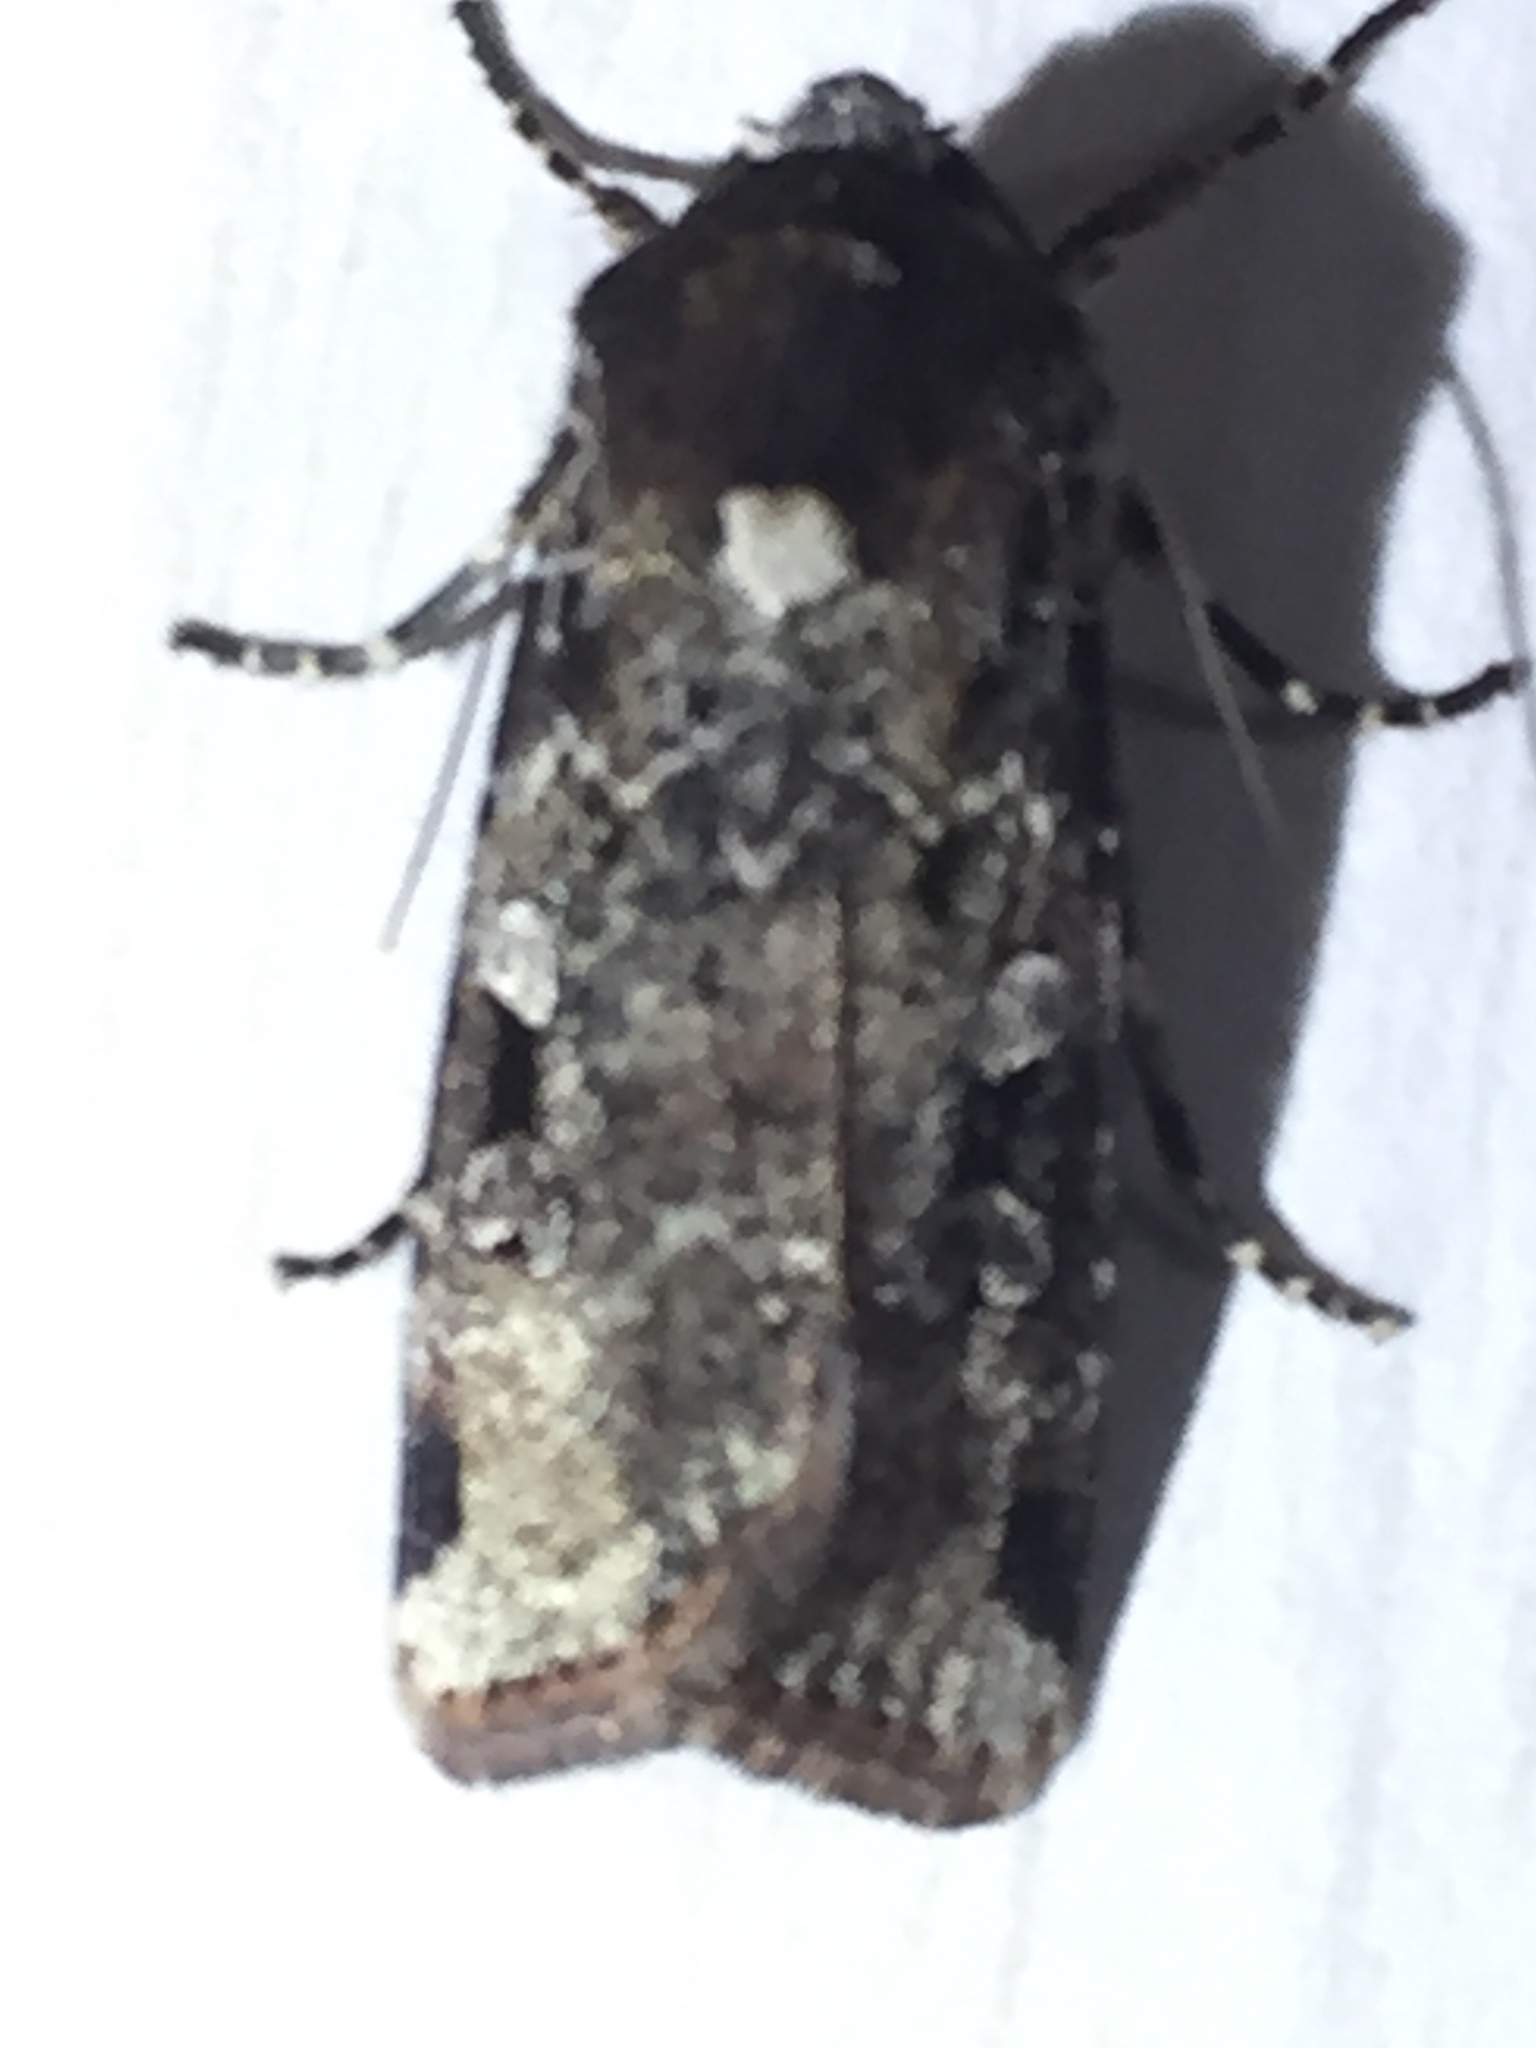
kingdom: Animalia
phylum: Arthropoda
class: Insecta
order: Lepidoptera
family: Noctuidae
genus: Mentaxya
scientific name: Mentaxya ignicollis
